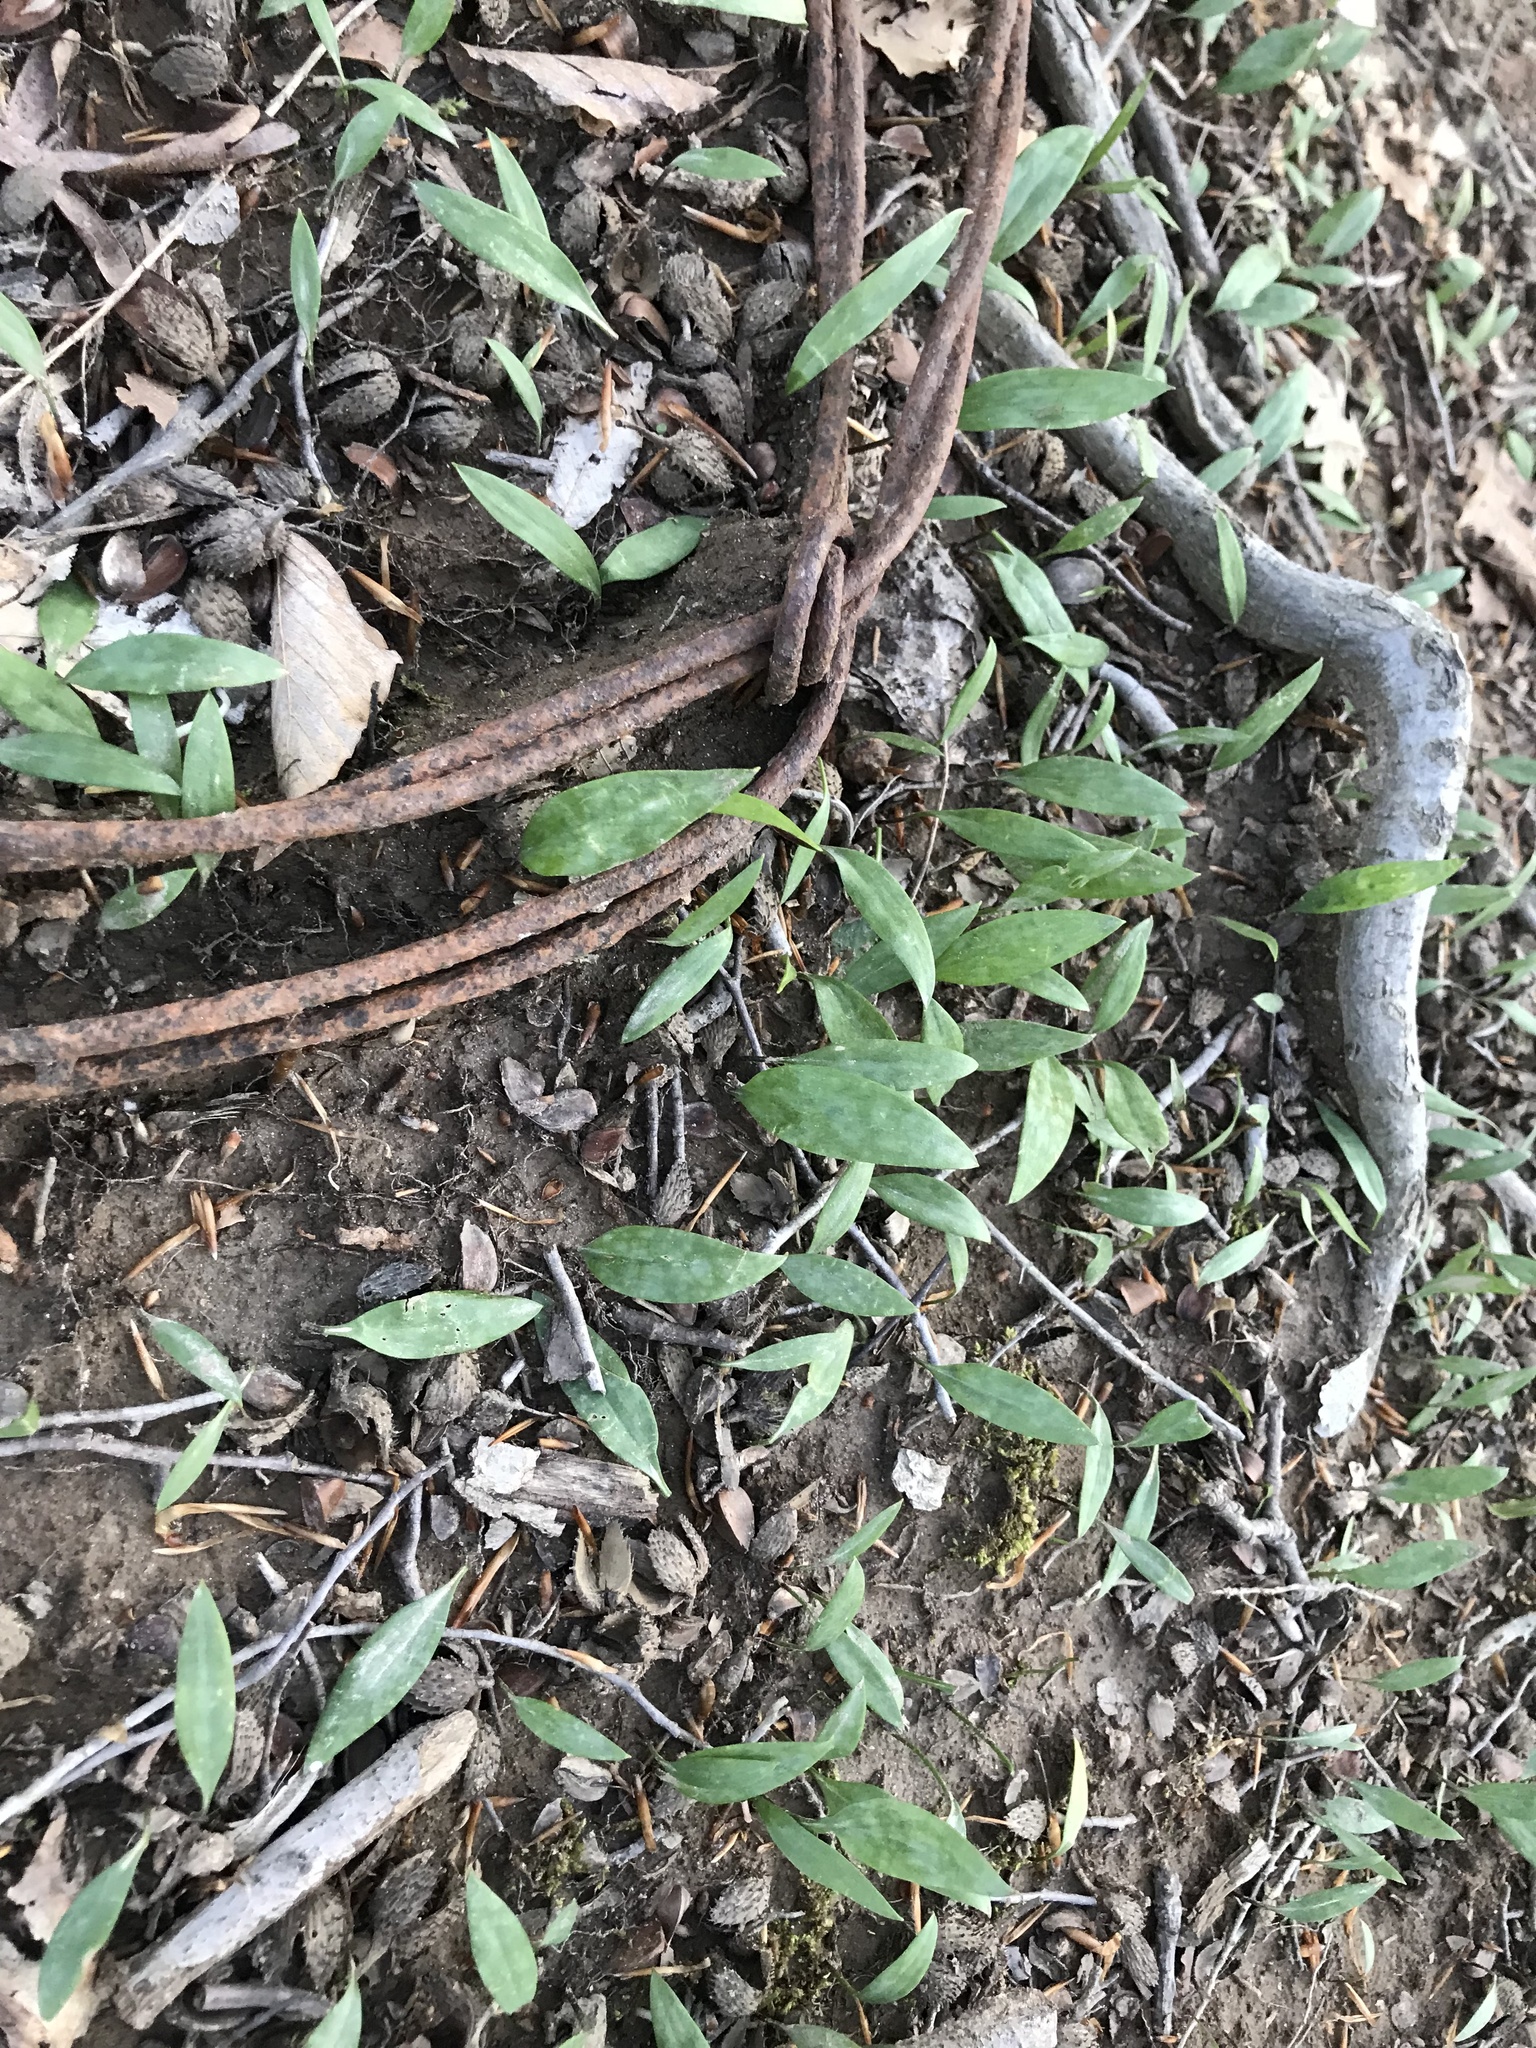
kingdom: Plantae
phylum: Tracheophyta
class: Liliopsida
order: Liliales
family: Liliaceae
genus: Erythronium
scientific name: Erythronium americanum
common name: Yellow adder's-tongue
